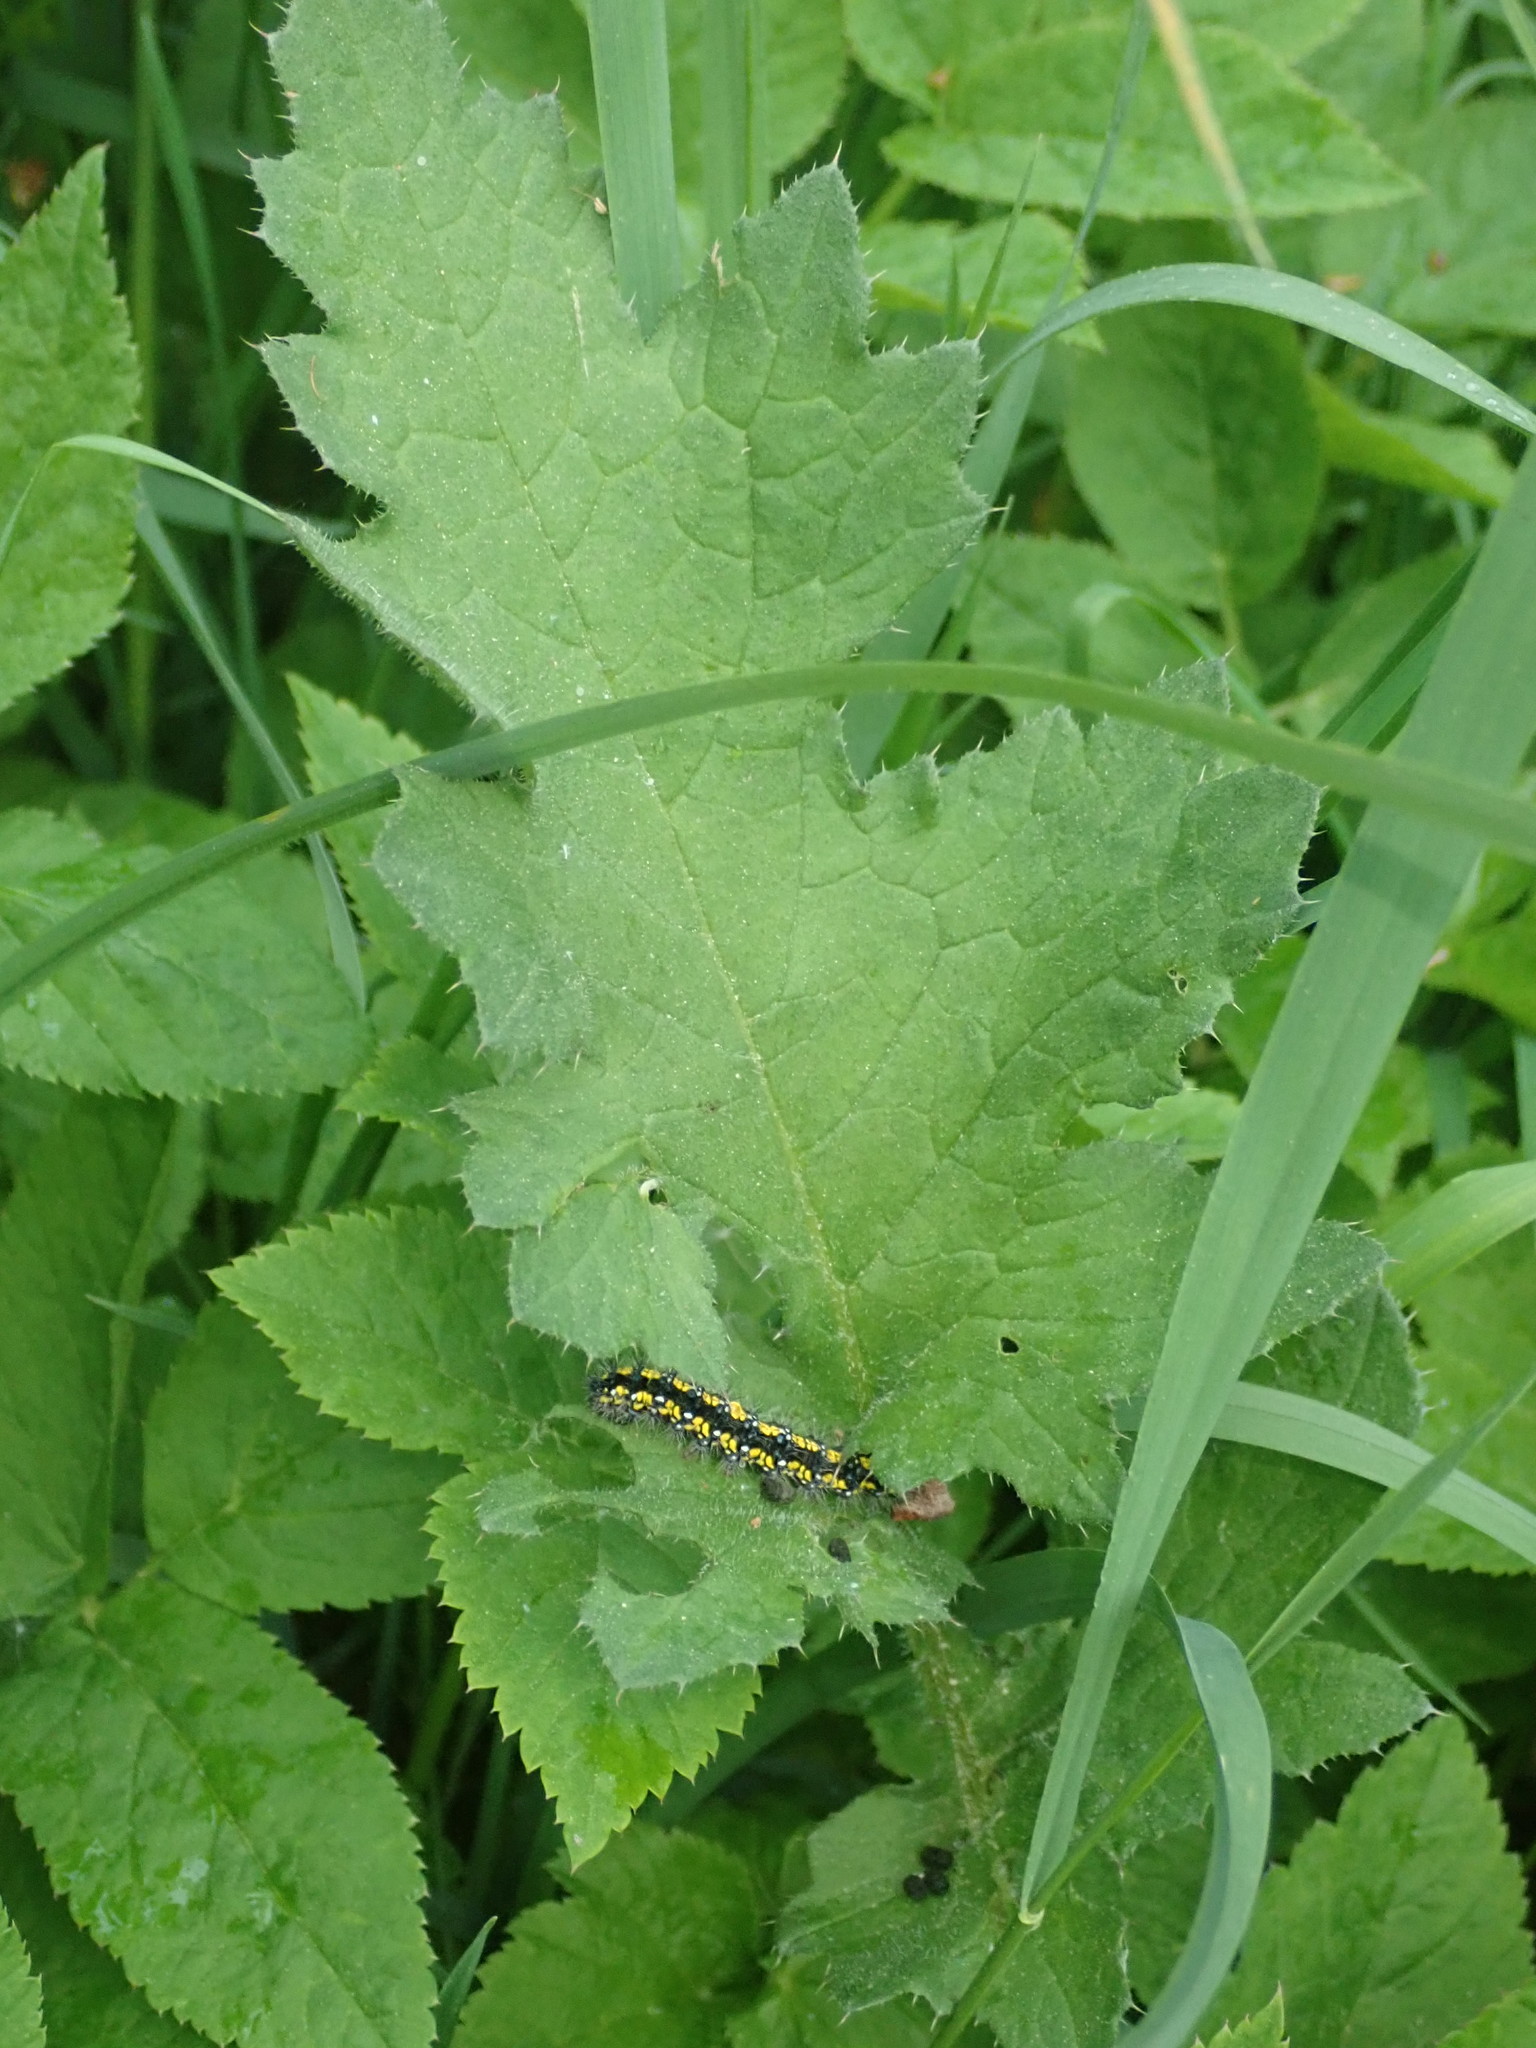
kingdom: Animalia
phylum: Arthropoda
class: Insecta
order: Lepidoptera
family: Erebidae
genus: Callimorpha
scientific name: Callimorpha dominula
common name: Scarlet tiger
